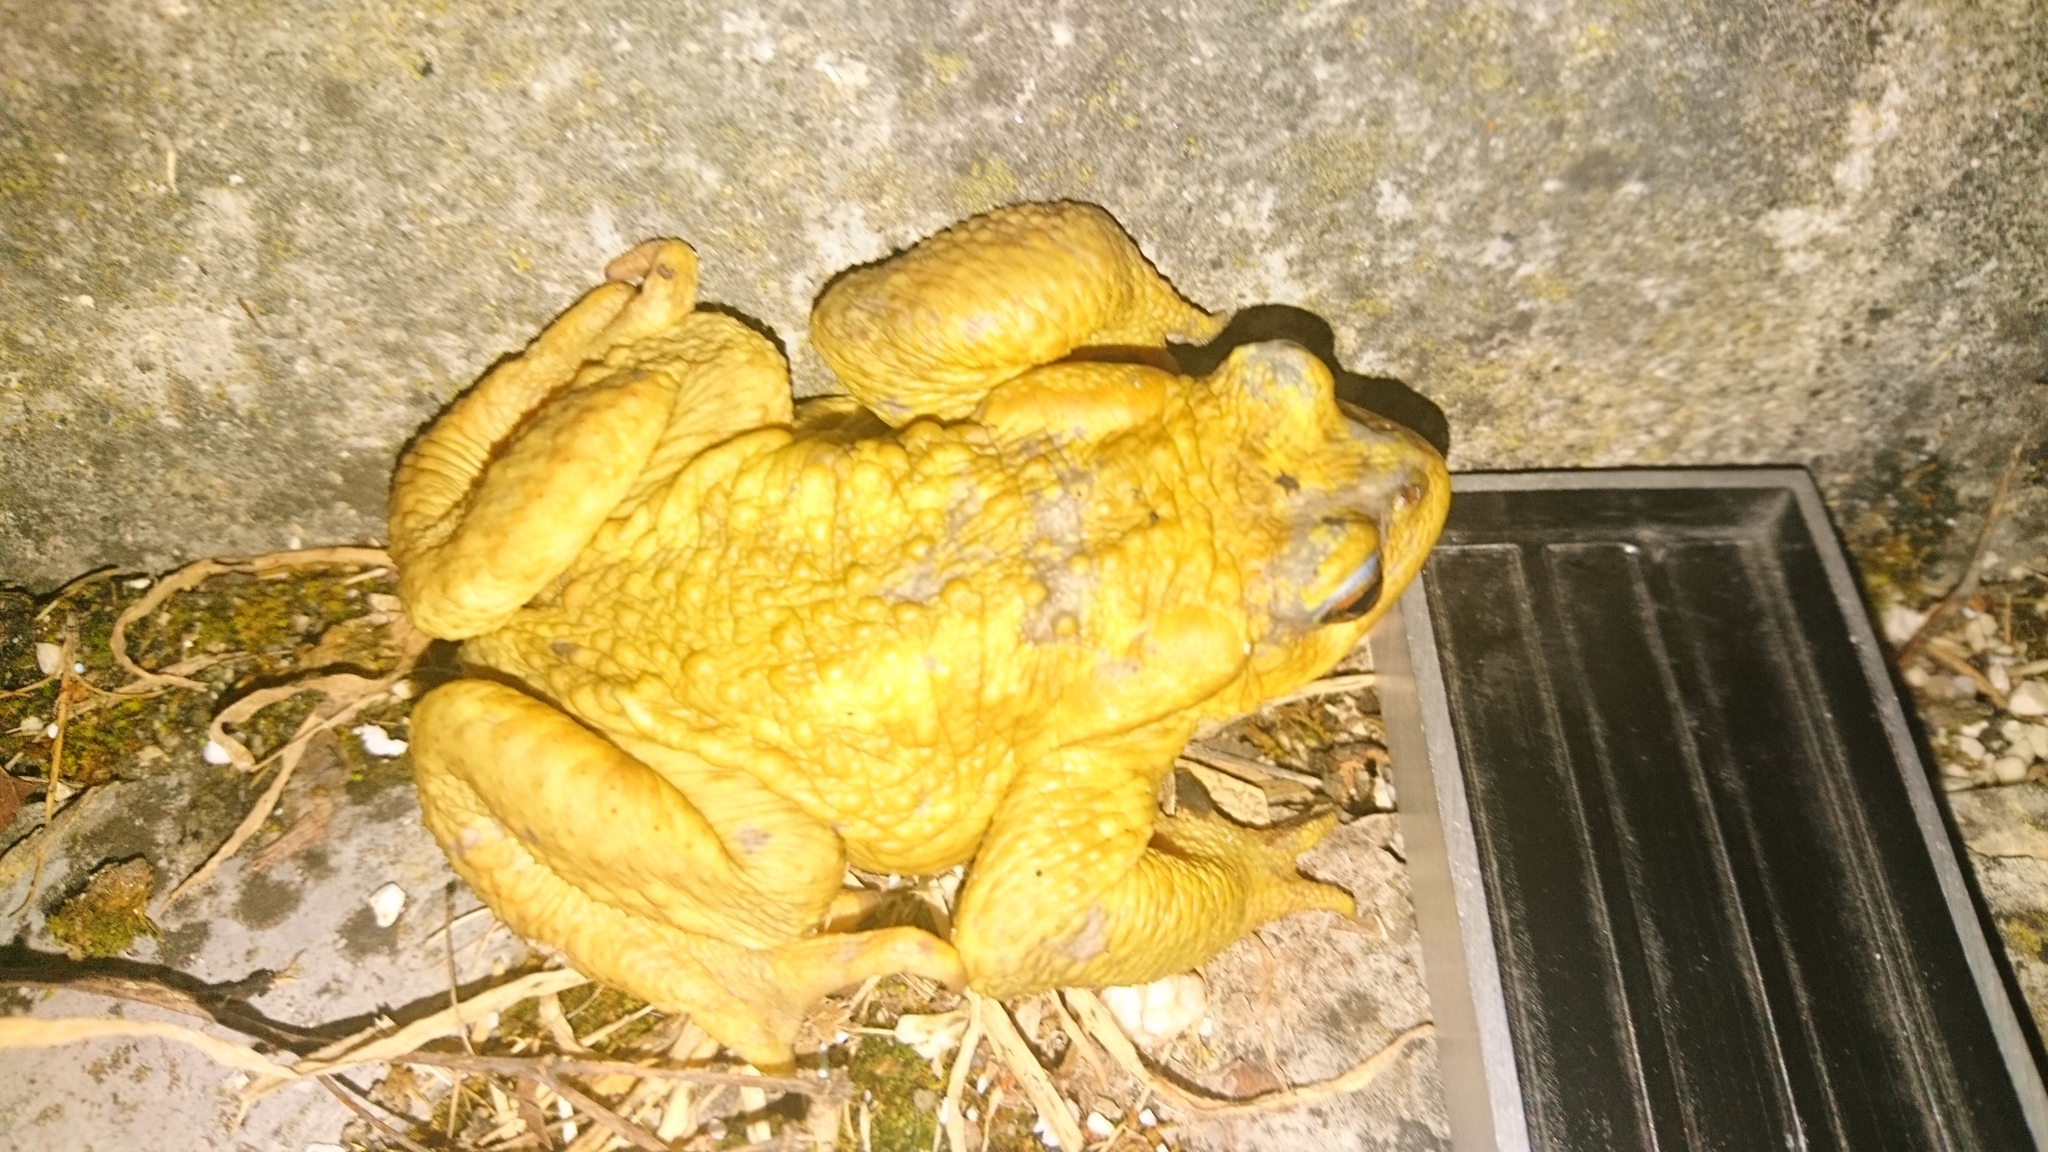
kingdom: Animalia
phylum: Chordata
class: Amphibia
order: Anura
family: Bufonidae
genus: Bufo
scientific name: Bufo spinosus
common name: Western common toad
